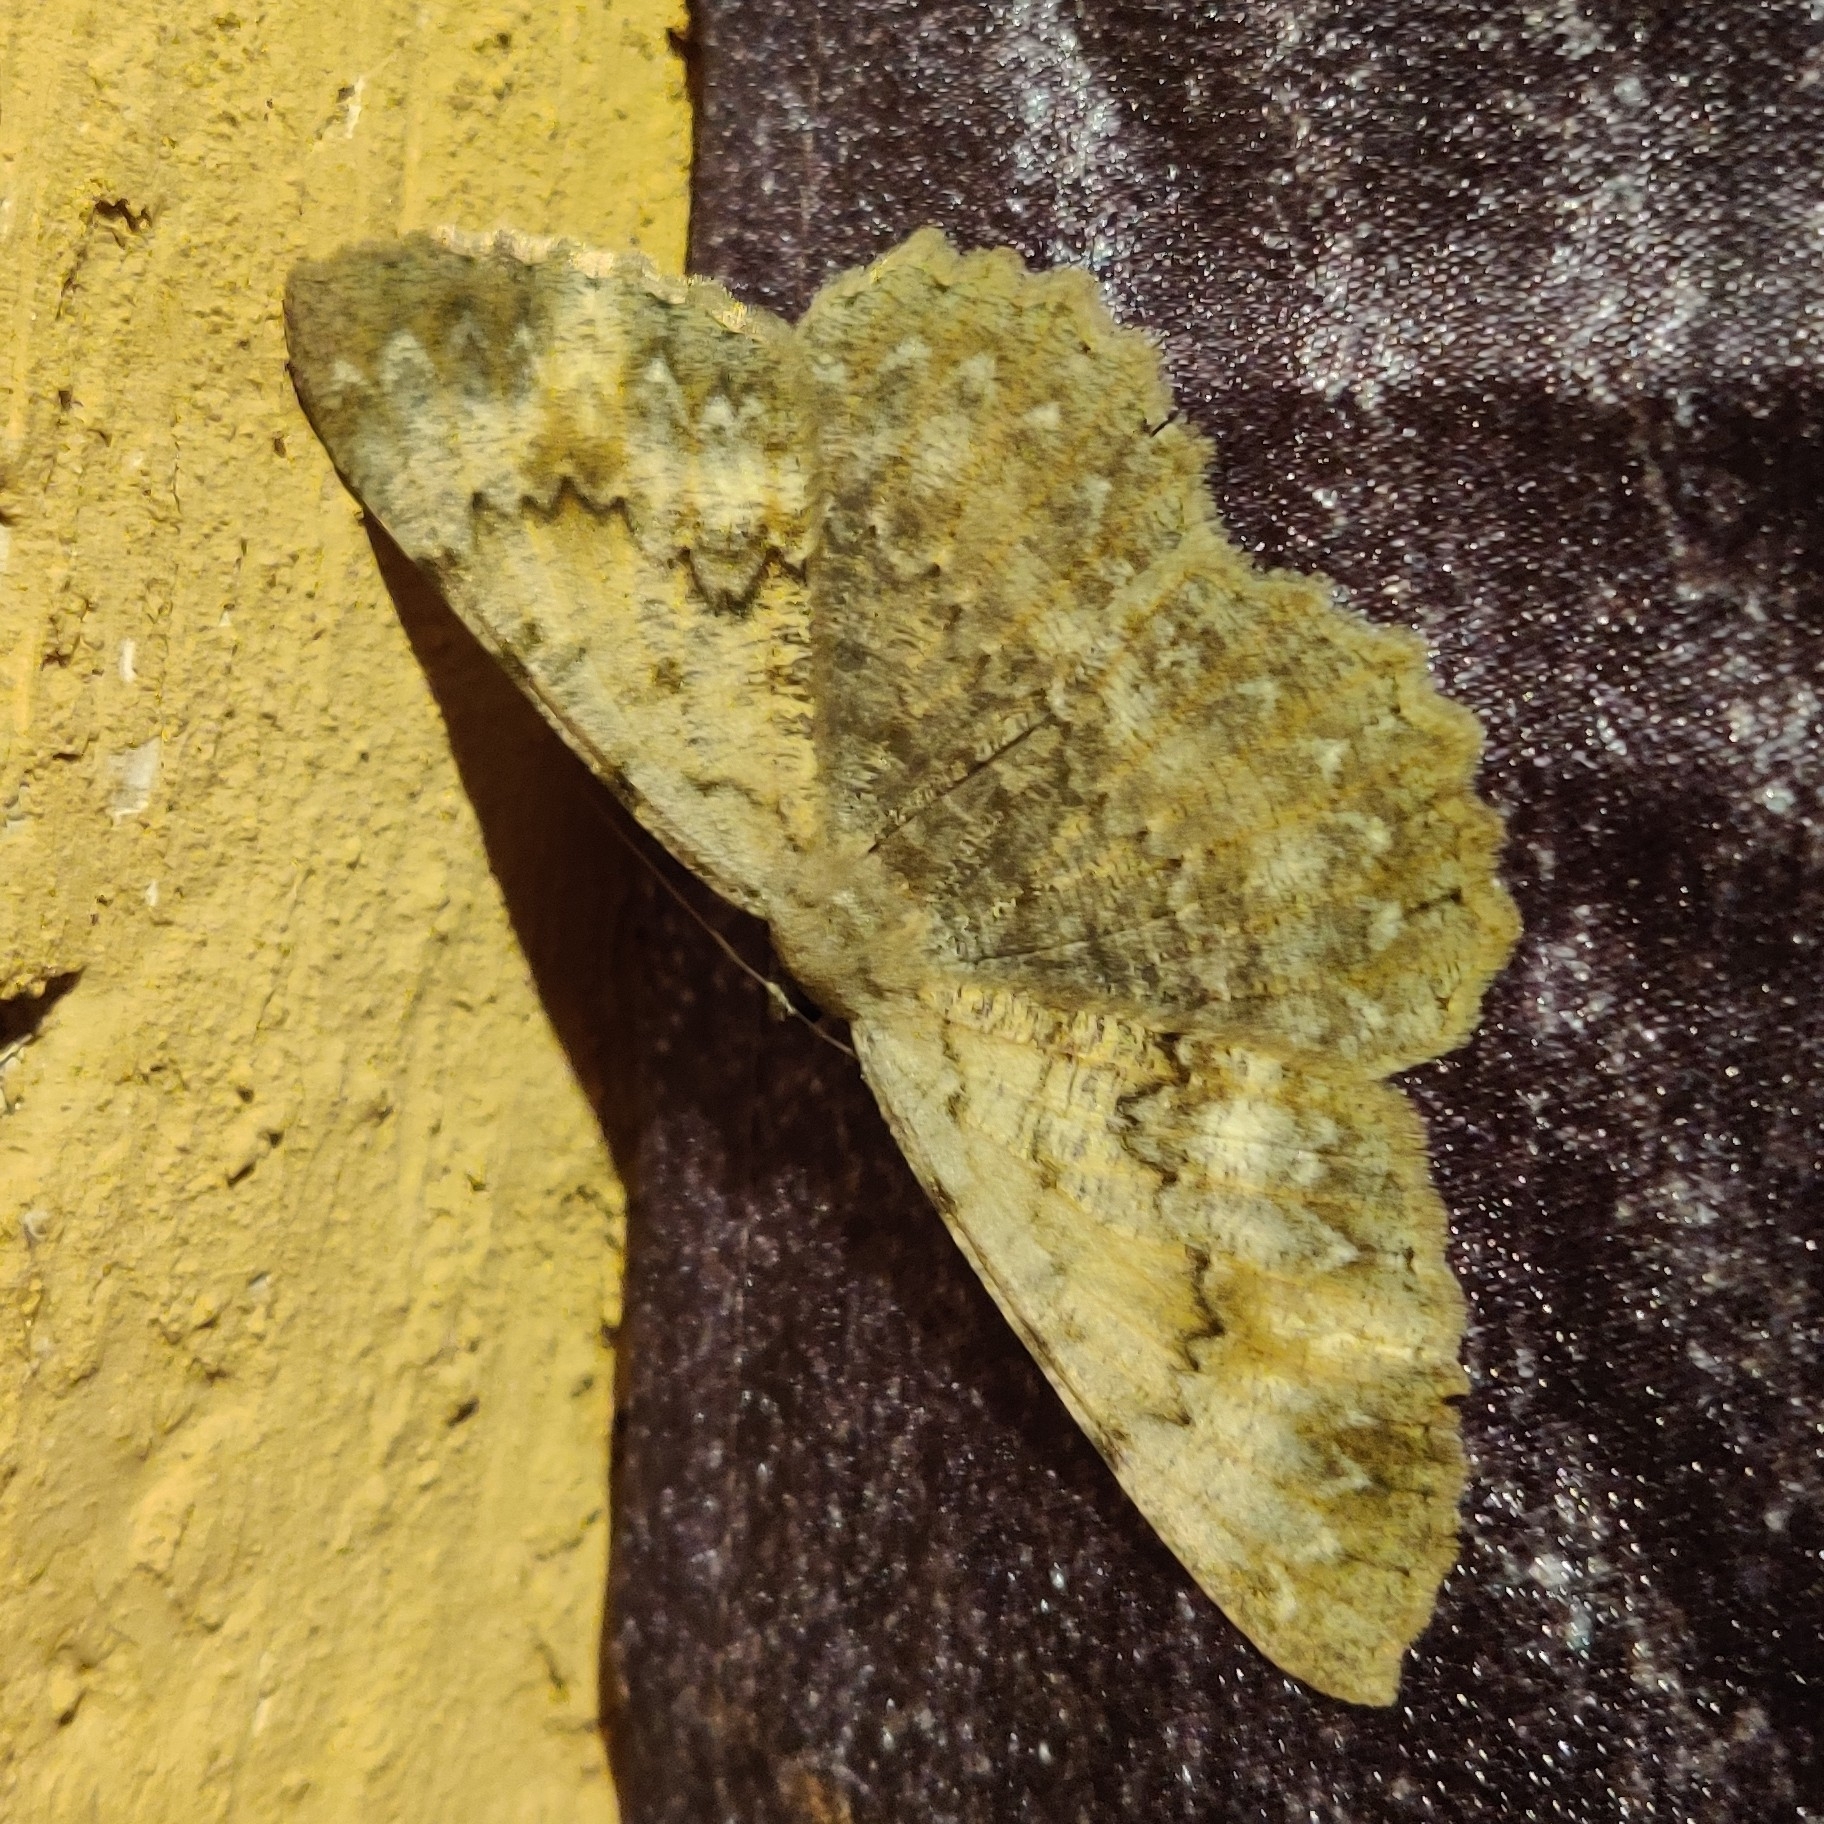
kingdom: Animalia
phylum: Arthropoda
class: Insecta
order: Lepidoptera
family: Geometridae
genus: Gnophos
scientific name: Gnophos accipitraria
